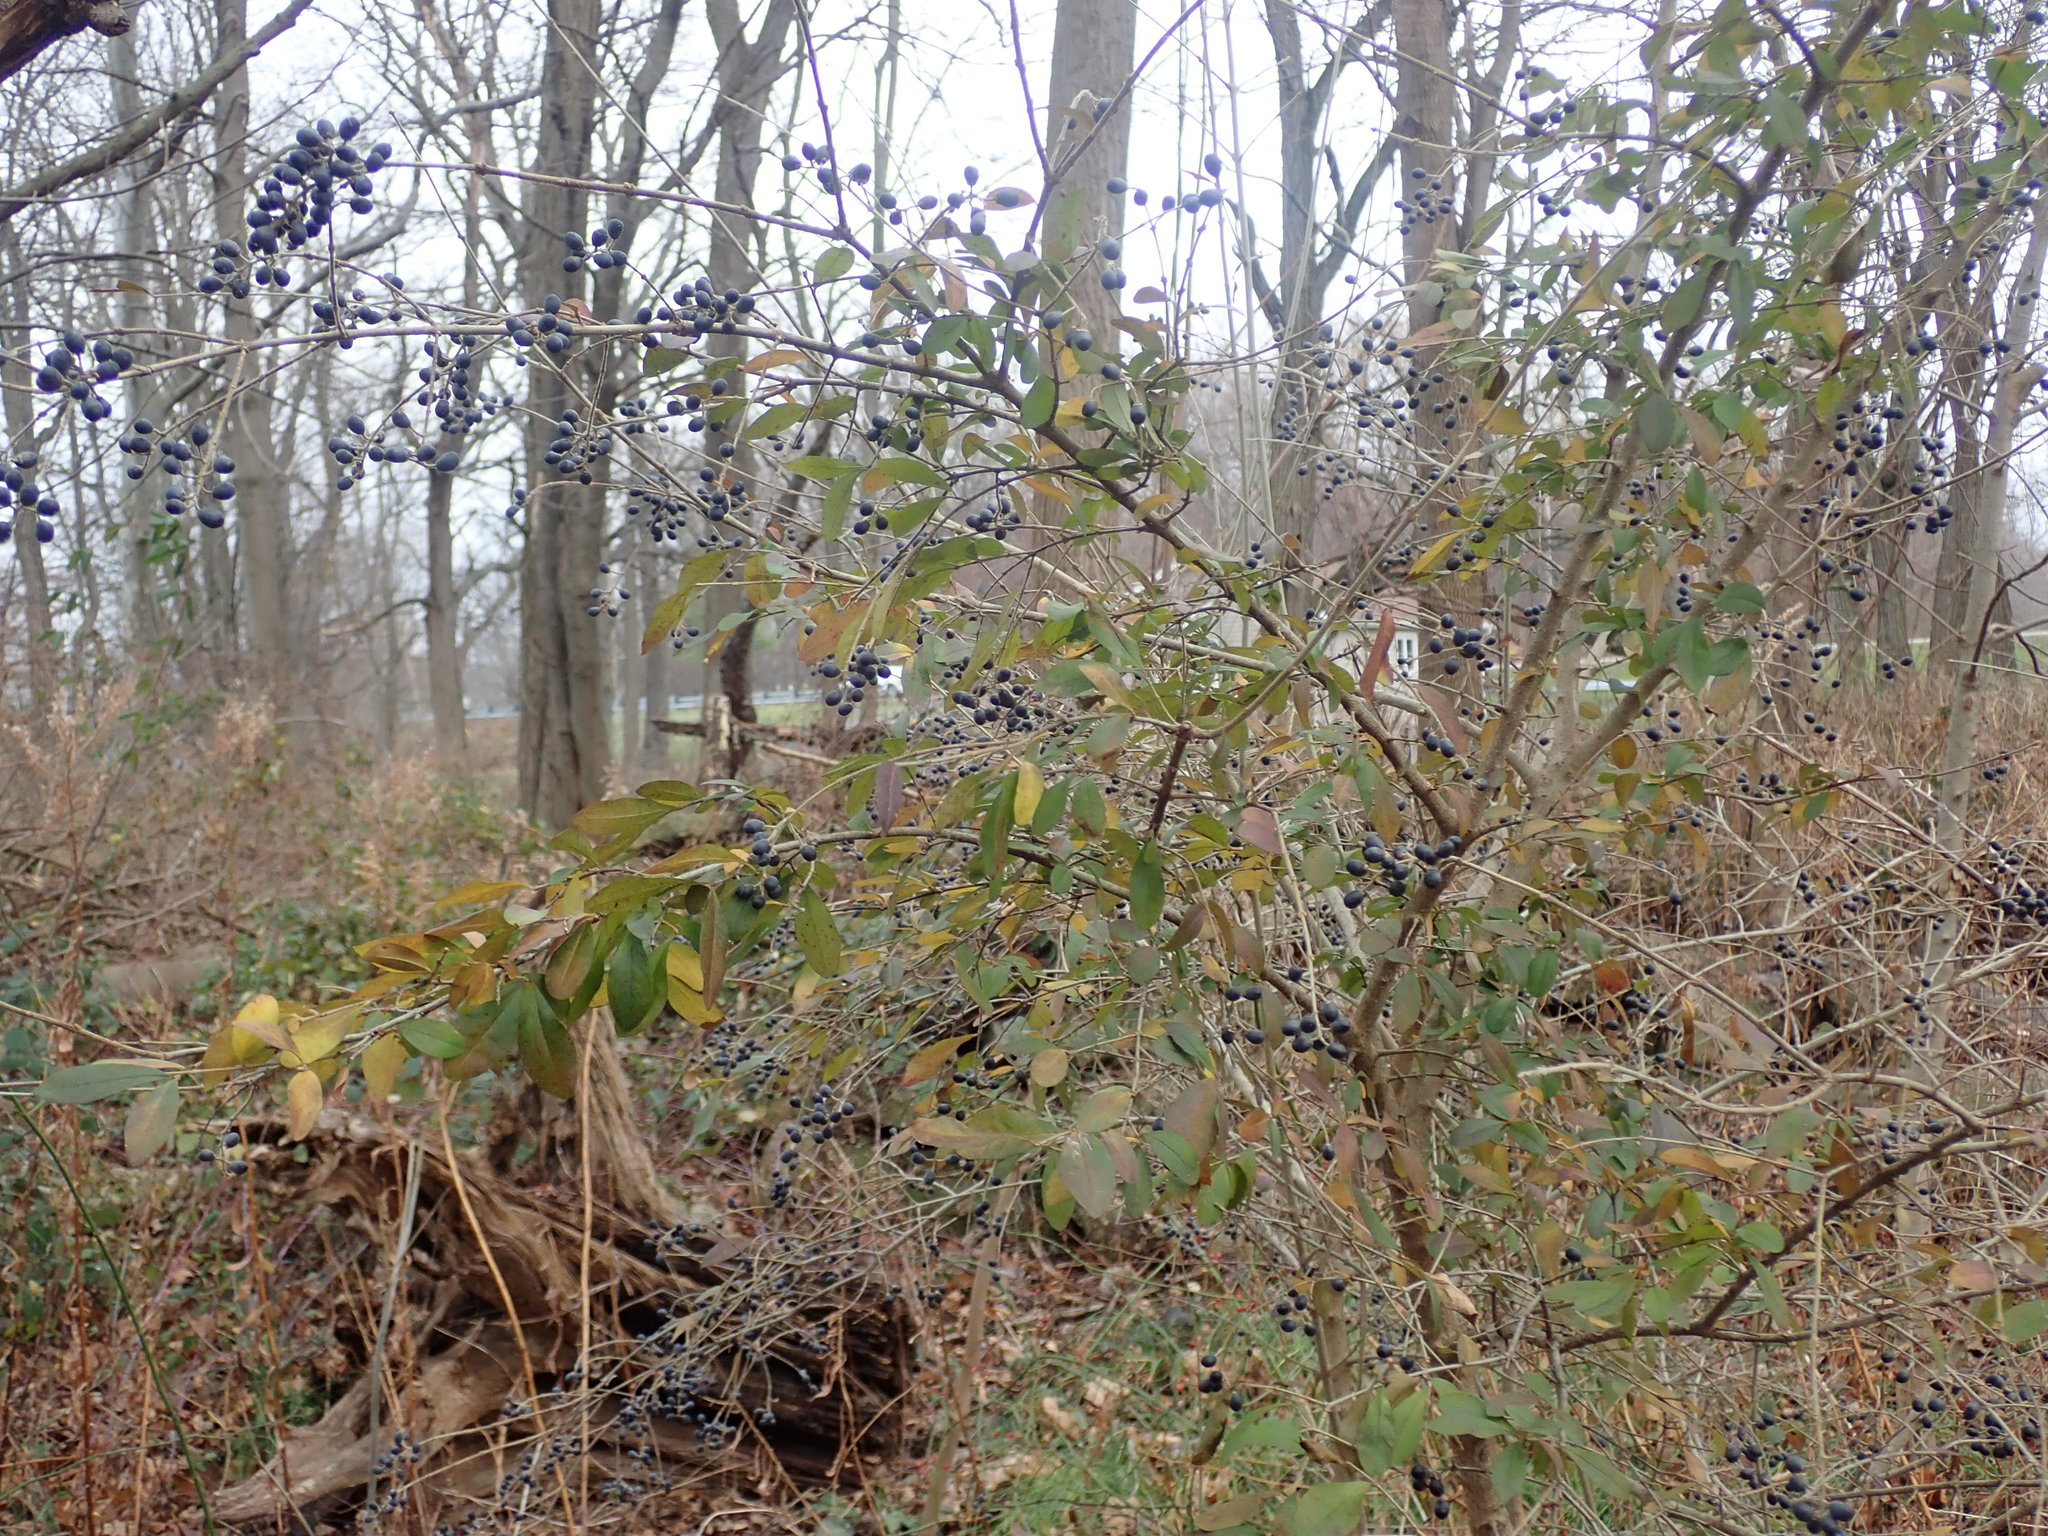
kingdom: Plantae
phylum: Tracheophyta
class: Magnoliopsida
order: Lamiales
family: Oleaceae
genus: Ligustrum
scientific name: Ligustrum obtusifolium
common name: Border privet
